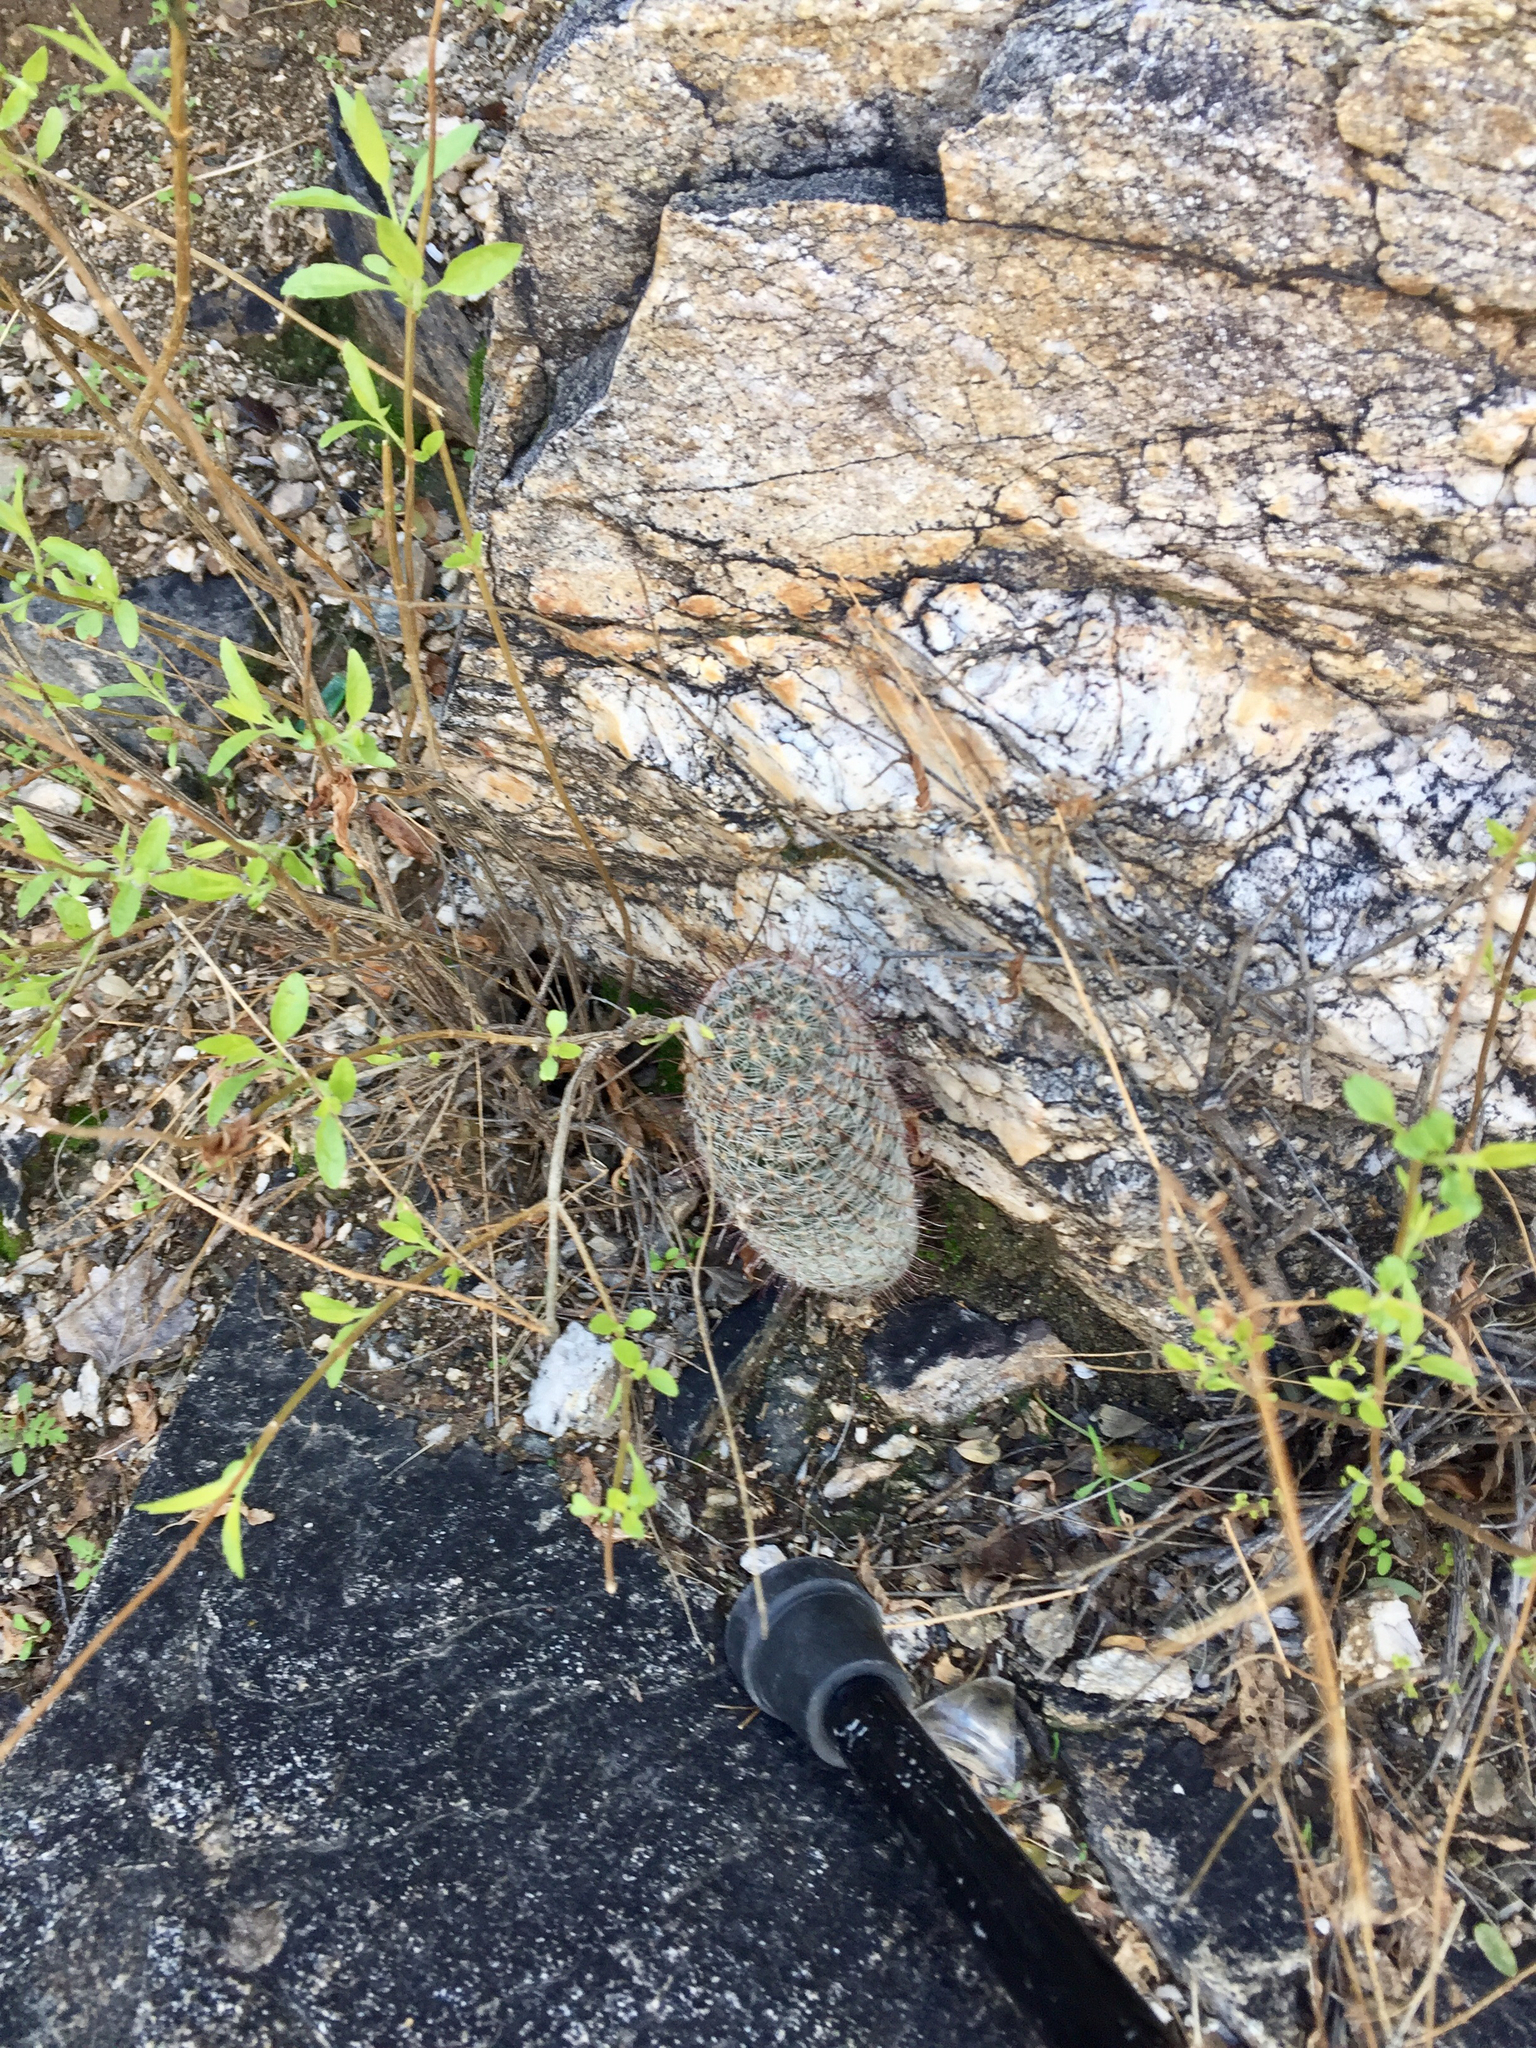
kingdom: Plantae
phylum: Tracheophyta
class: Magnoliopsida
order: Caryophyllales
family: Cactaceae
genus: Cochemiea
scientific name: Cochemiea grahamii
